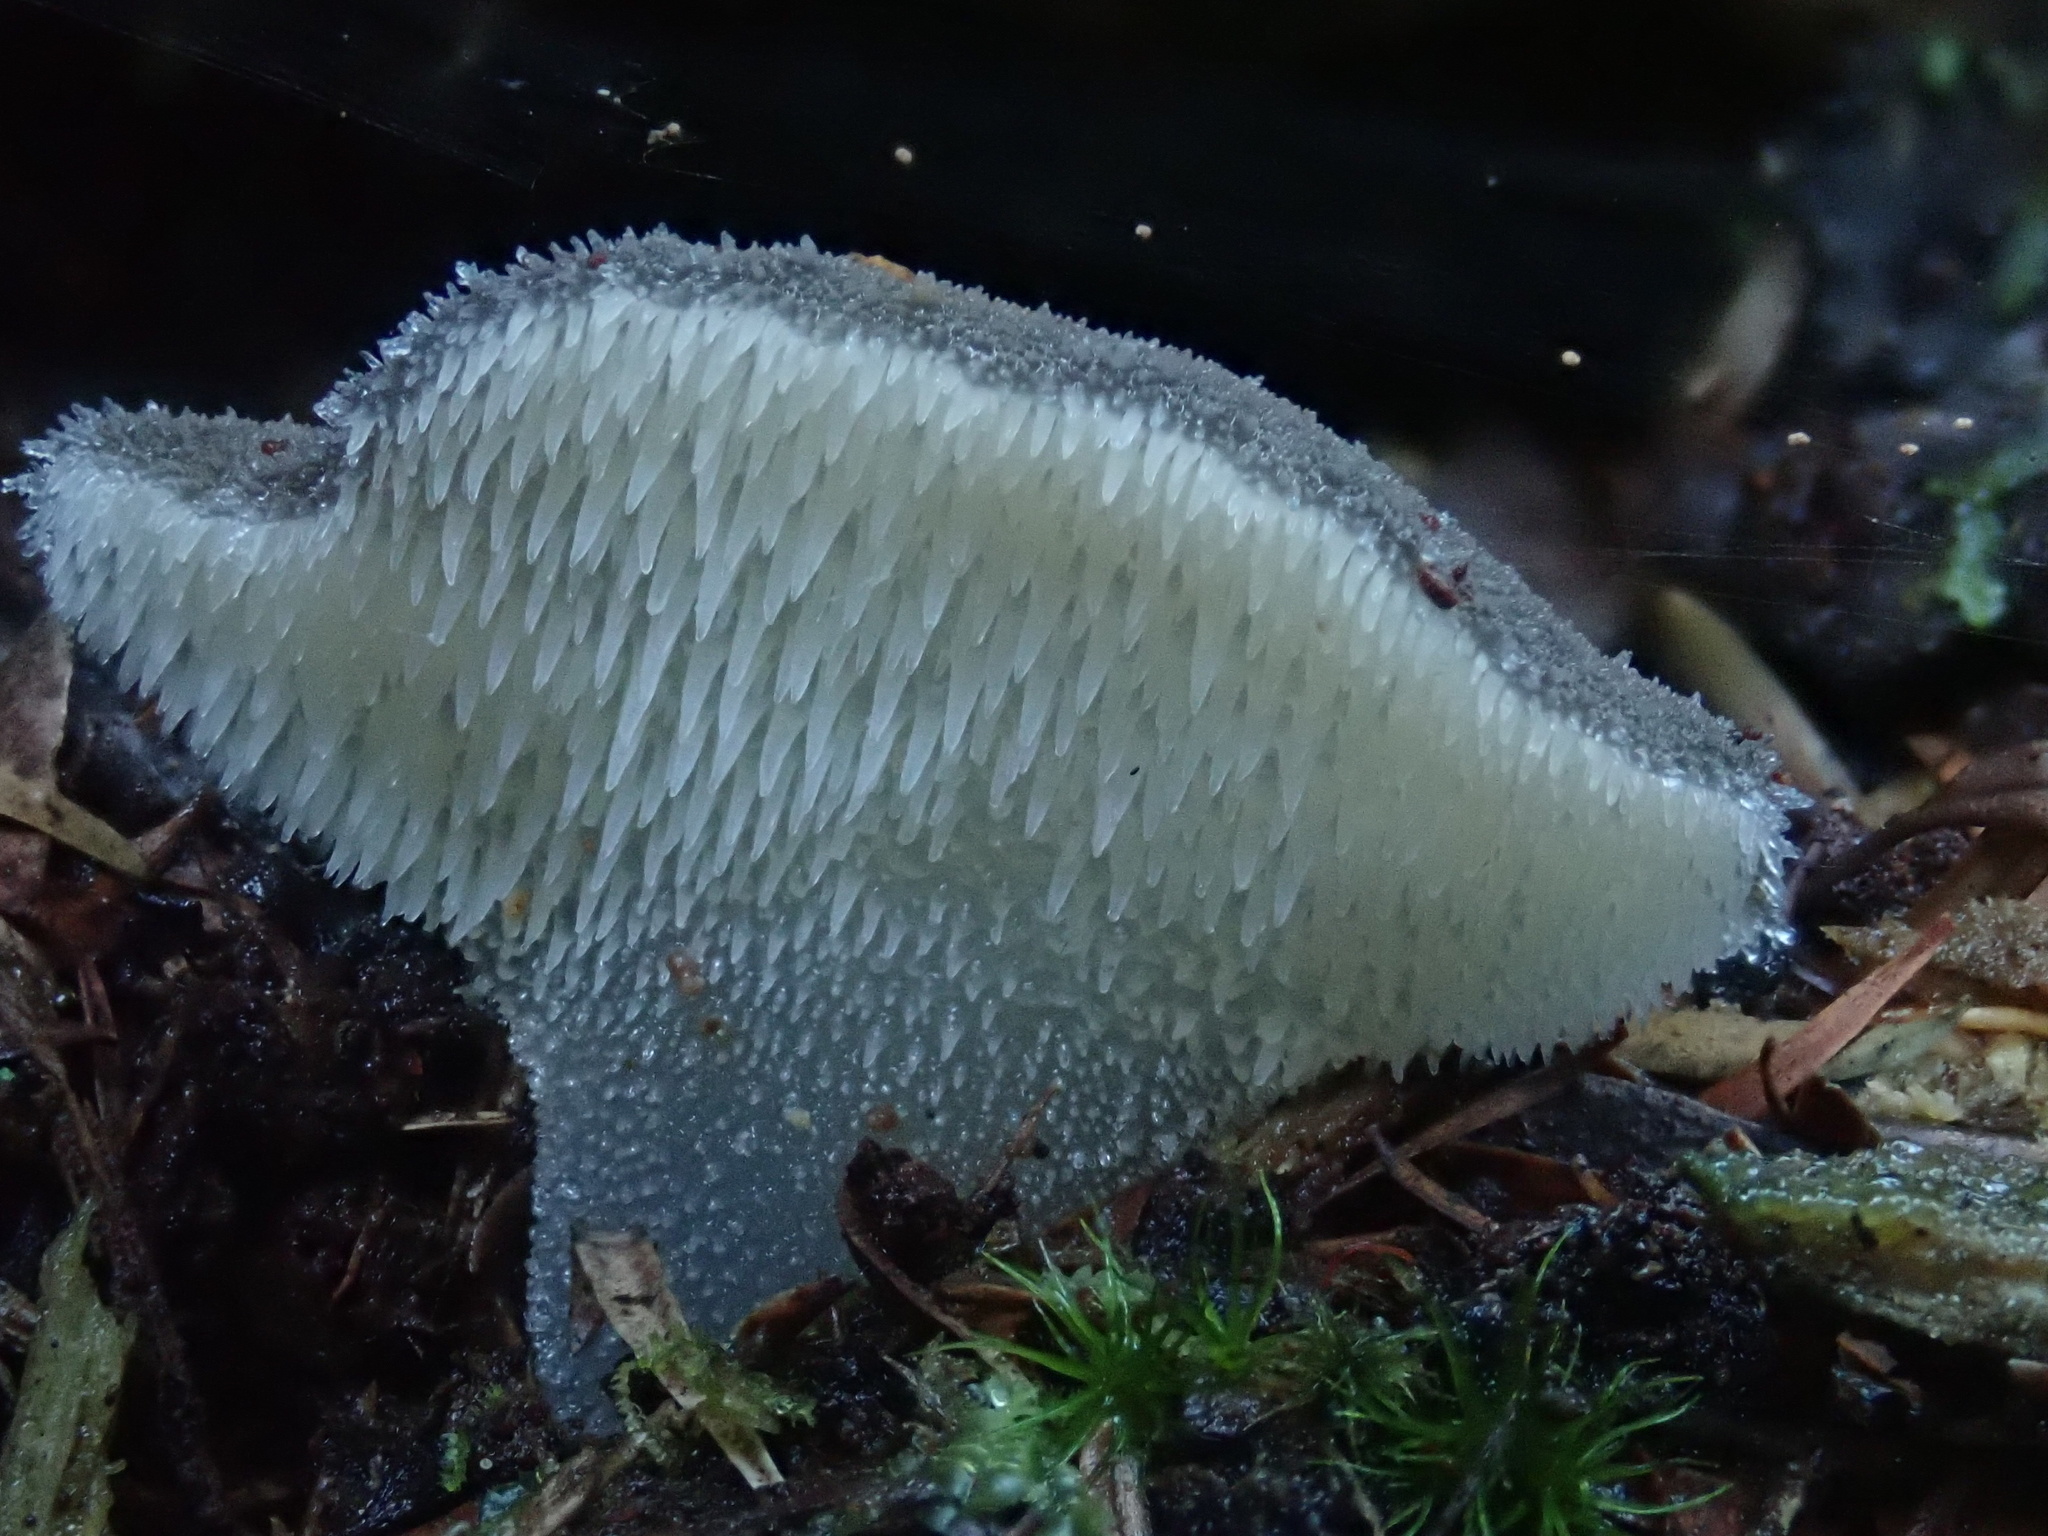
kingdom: Fungi
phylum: Basidiomycota
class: Agaricomycetes
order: Auriculariales
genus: Pseudohydnum
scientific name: Pseudohydnum gelatinosum
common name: Jelly tongue
